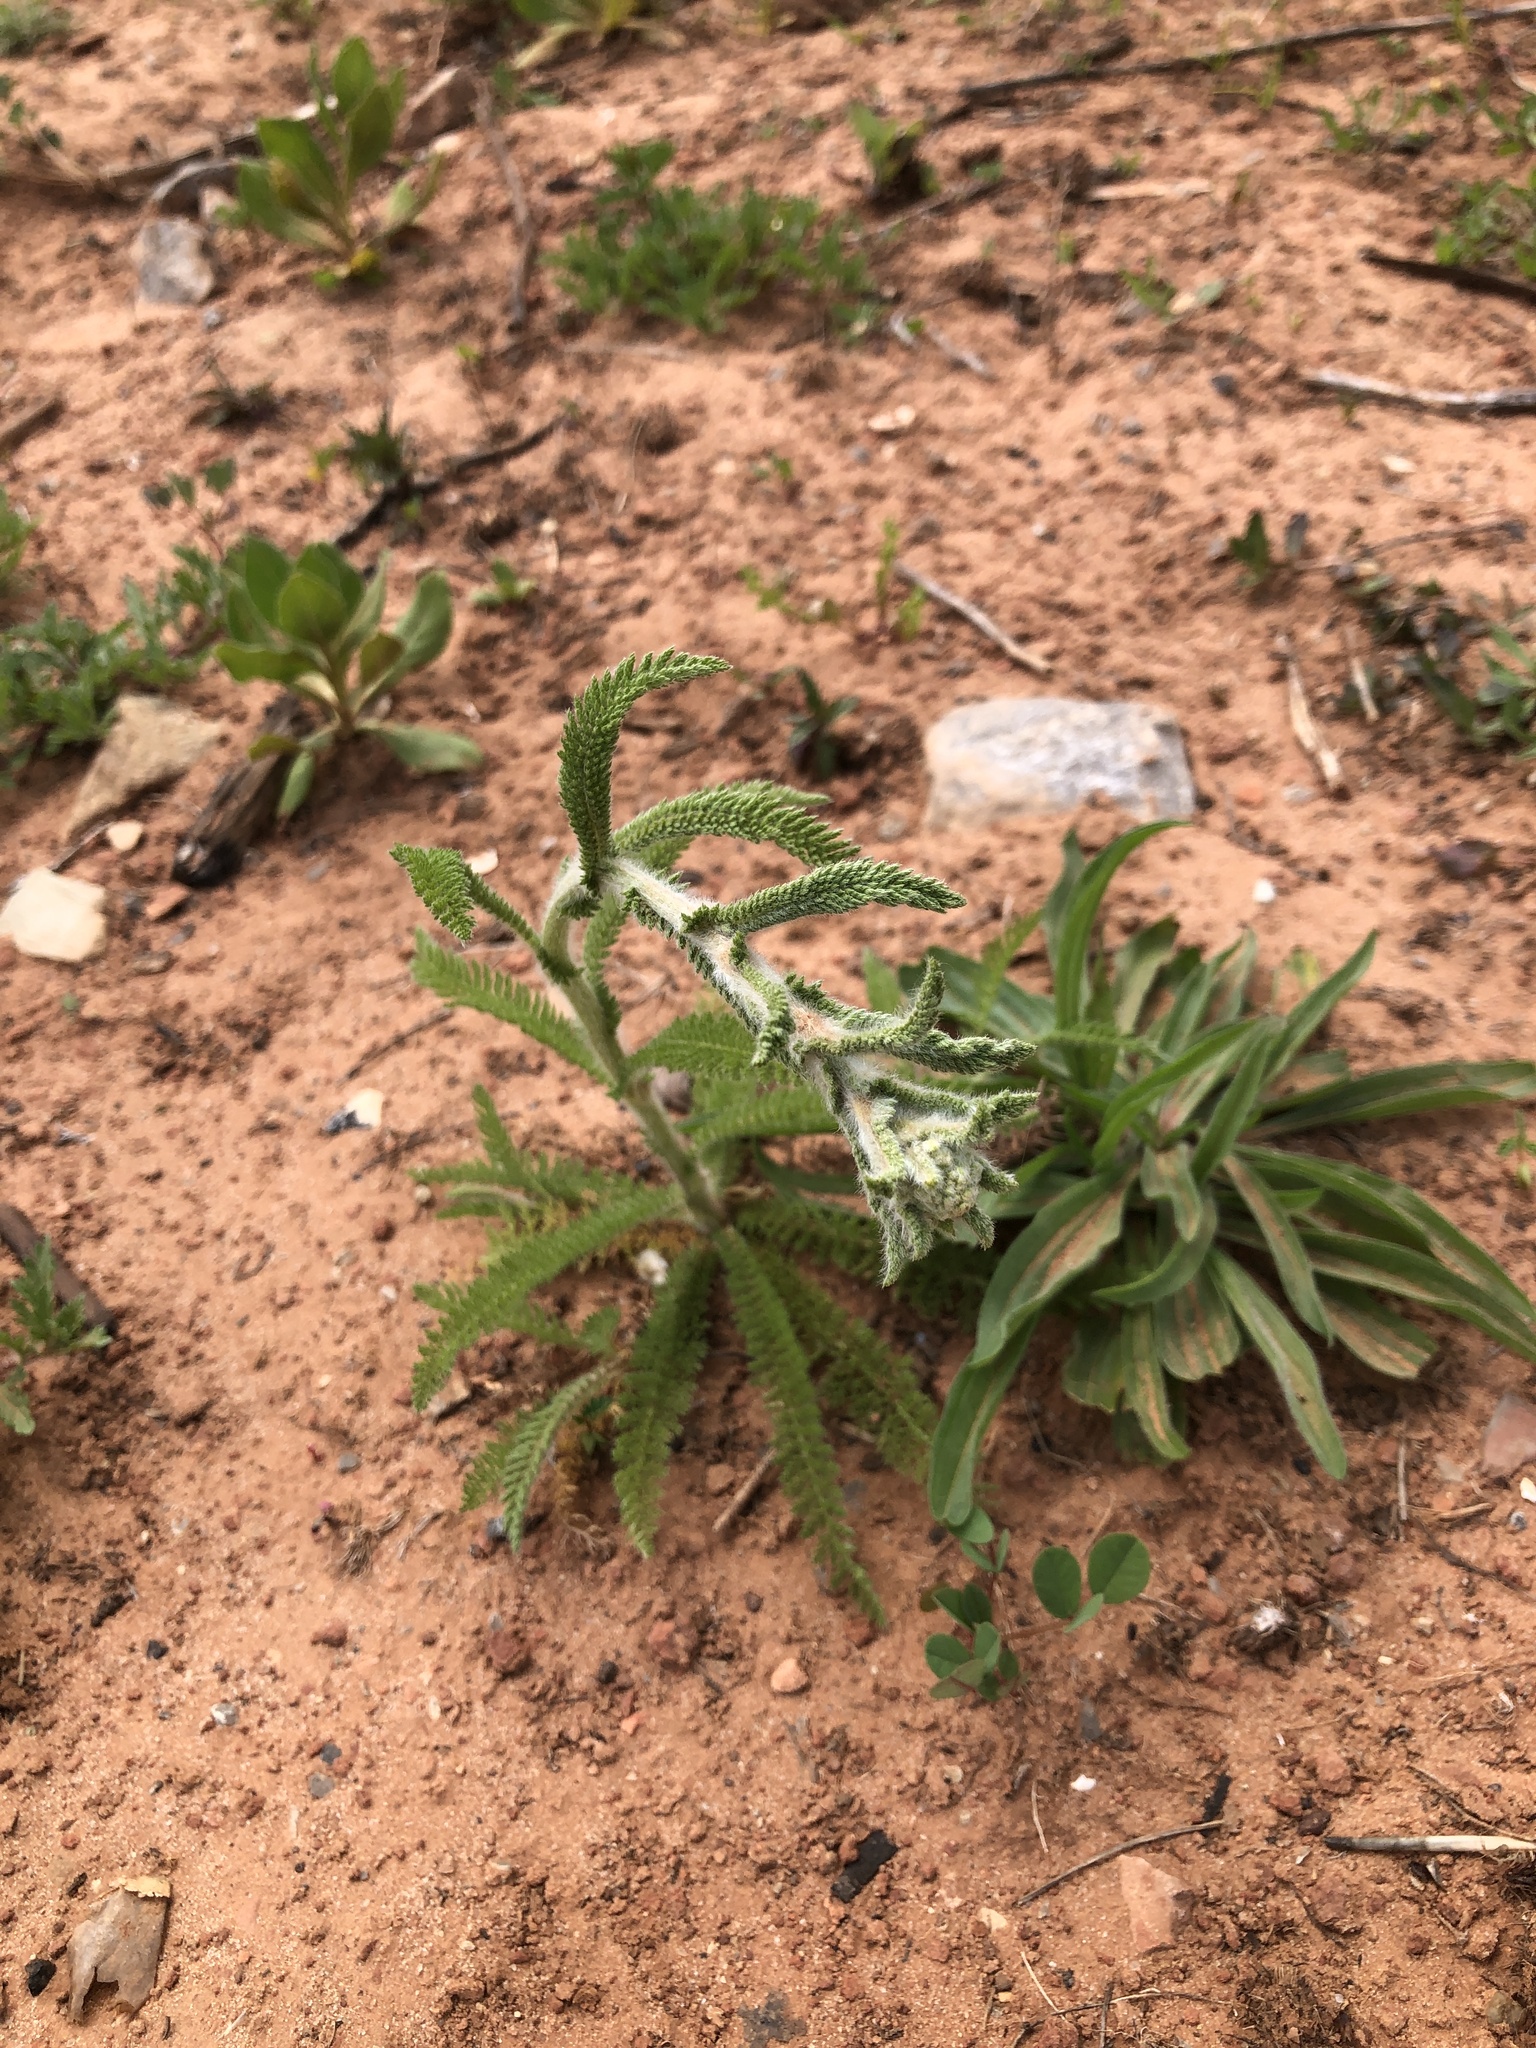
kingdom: Plantae
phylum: Tracheophyta
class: Magnoliopsida
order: Asterales
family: Asteraceae
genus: Achillea
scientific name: Achillea millefolium
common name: Yarrow
